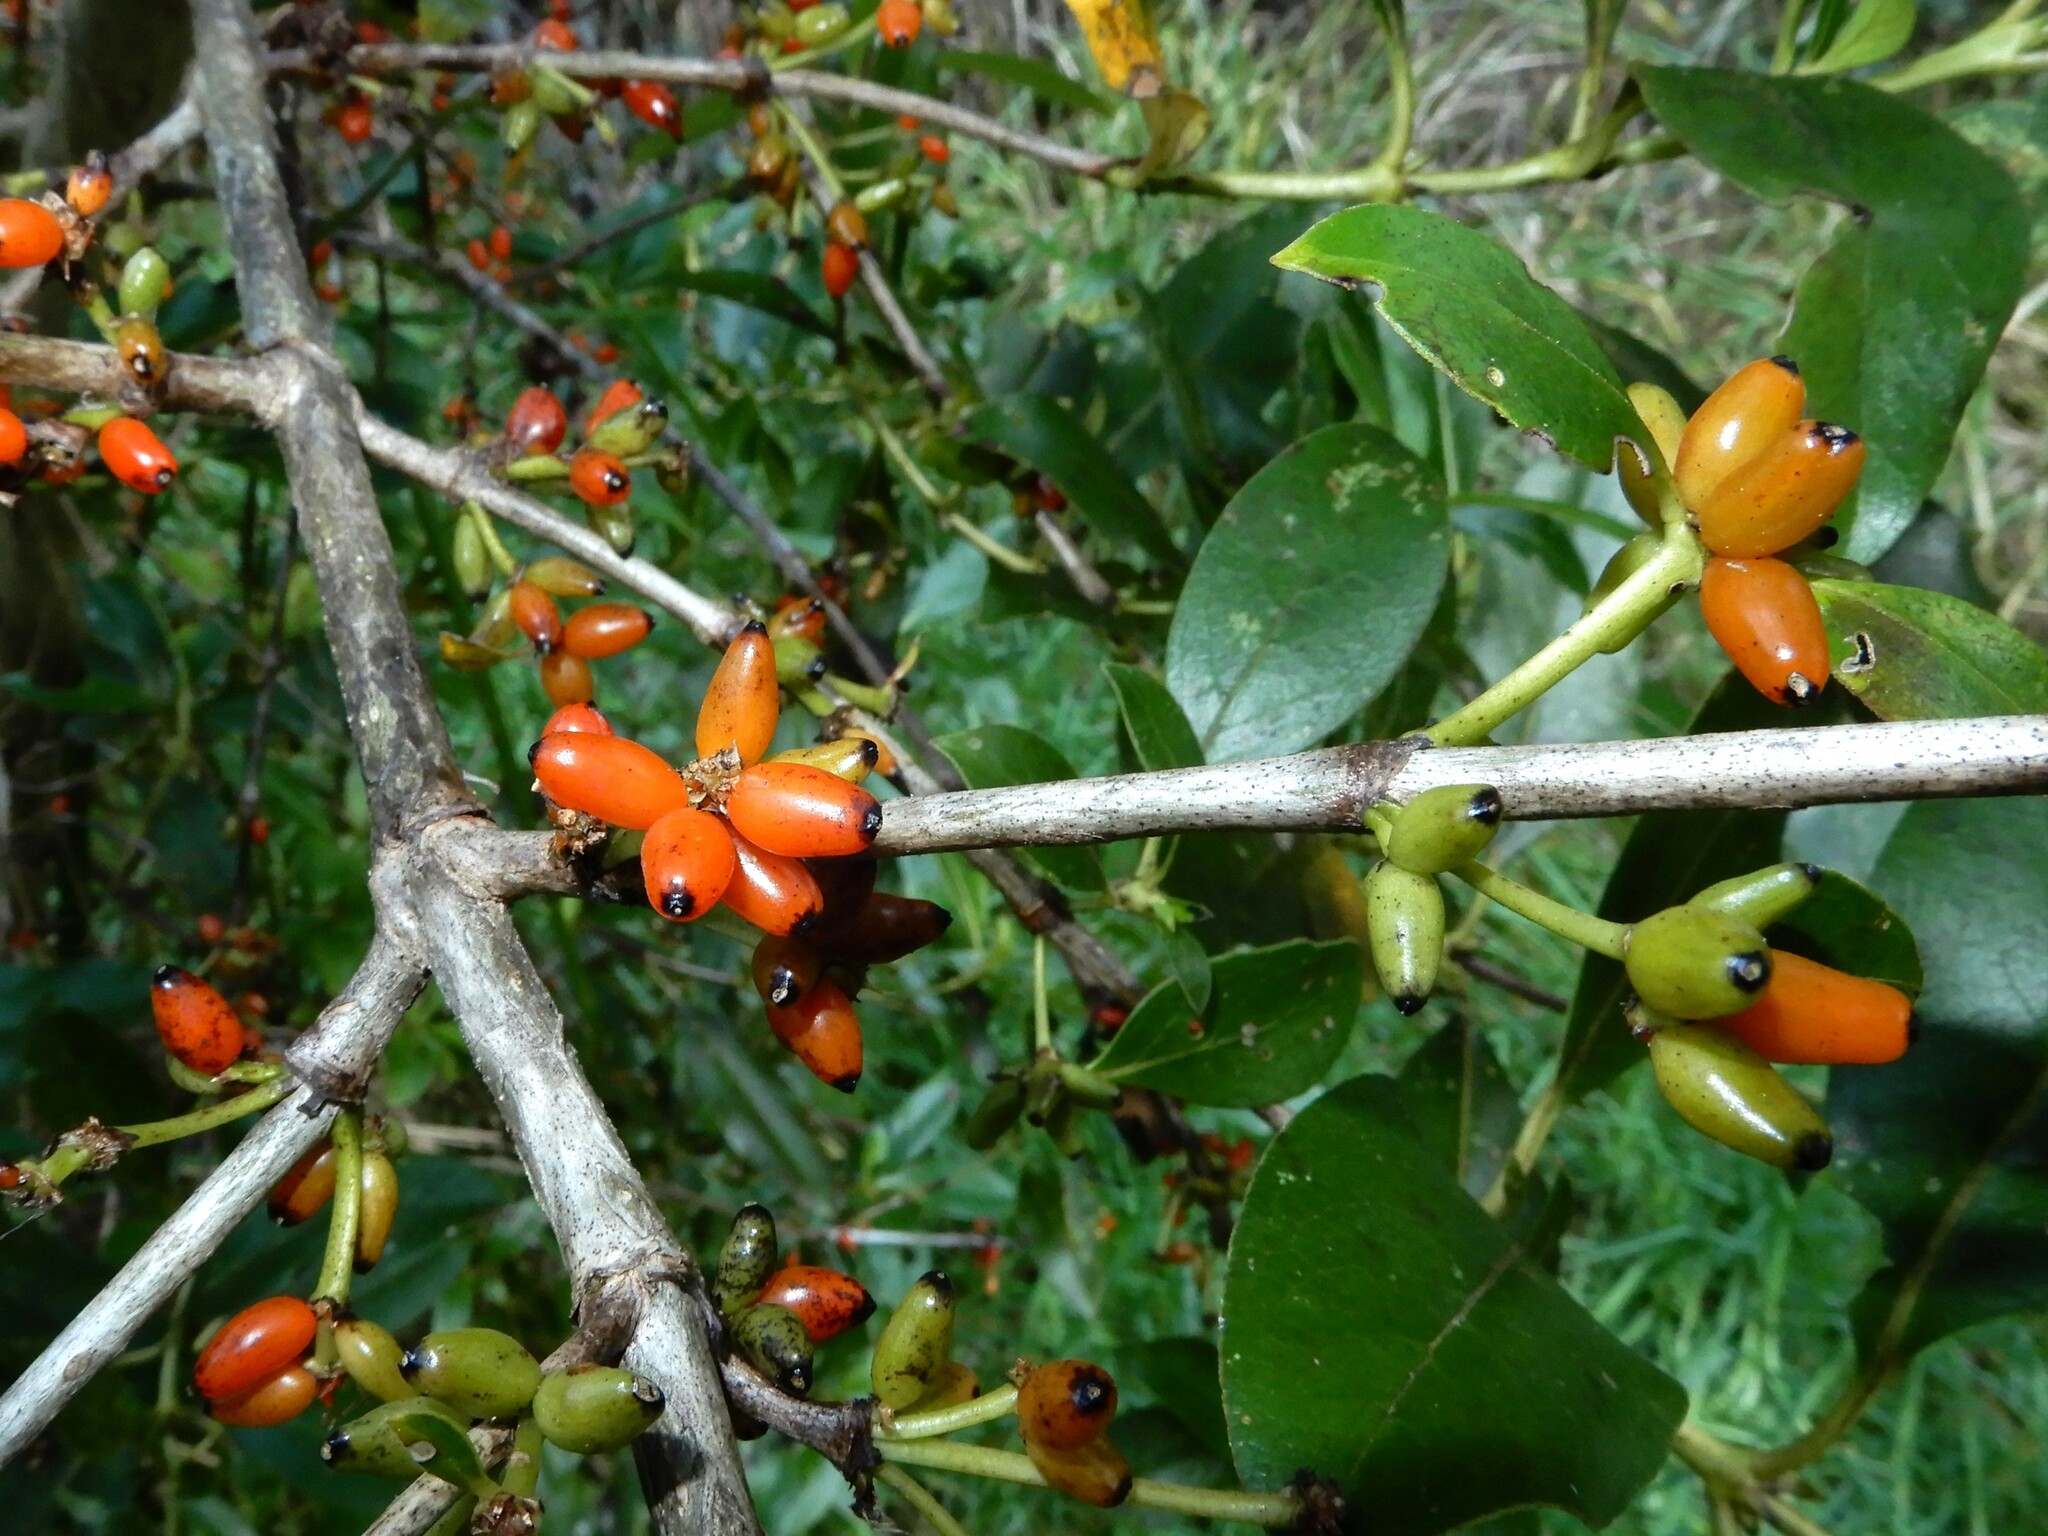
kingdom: Plantae
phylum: Tracheophyta
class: Magnoliopsida
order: Gentianales
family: Rubiaceae
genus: Coprosma
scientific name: Coprosma robusta
